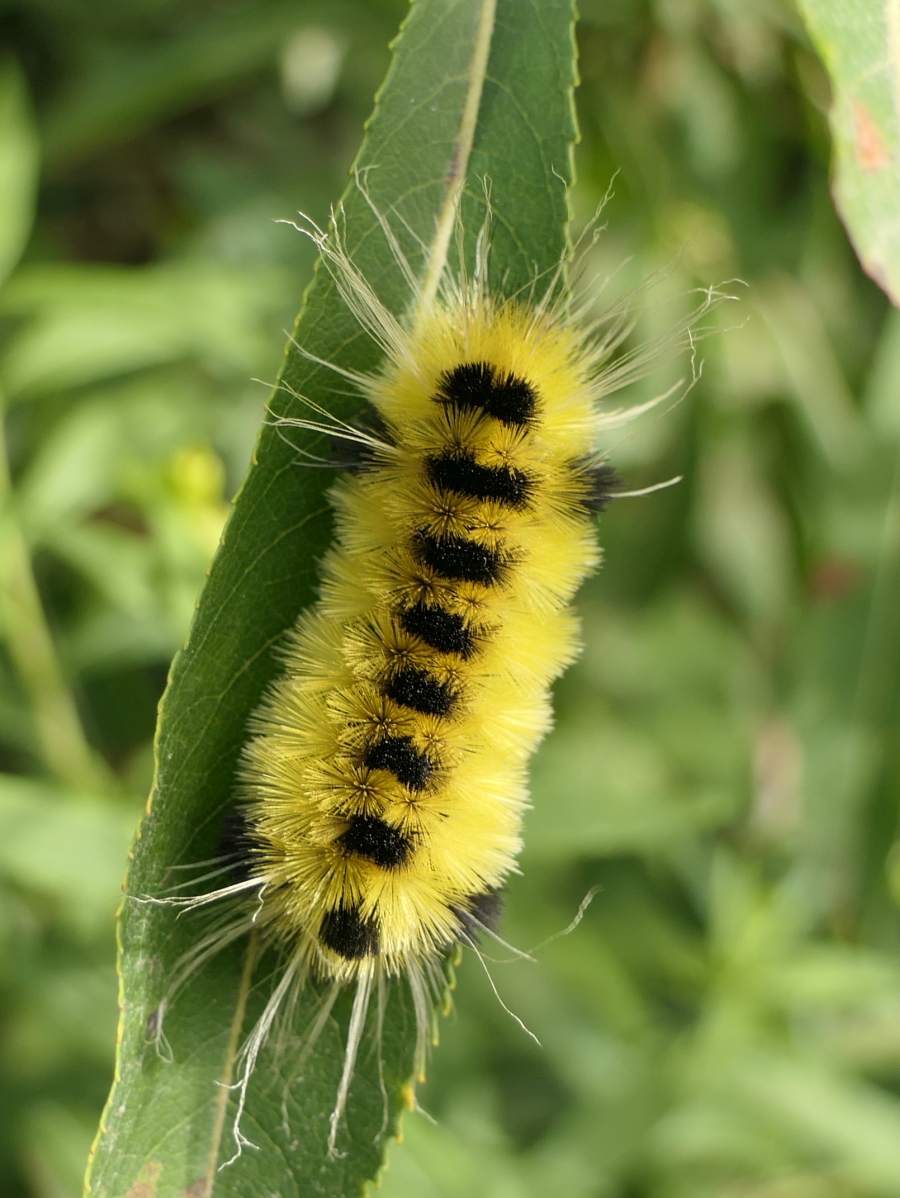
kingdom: Animalia
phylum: Arthropoda
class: Insecta
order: Lepidoptera
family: Erebidae
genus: Lophocampa
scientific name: Lophocampa maculata
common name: Spotted tussock moth
